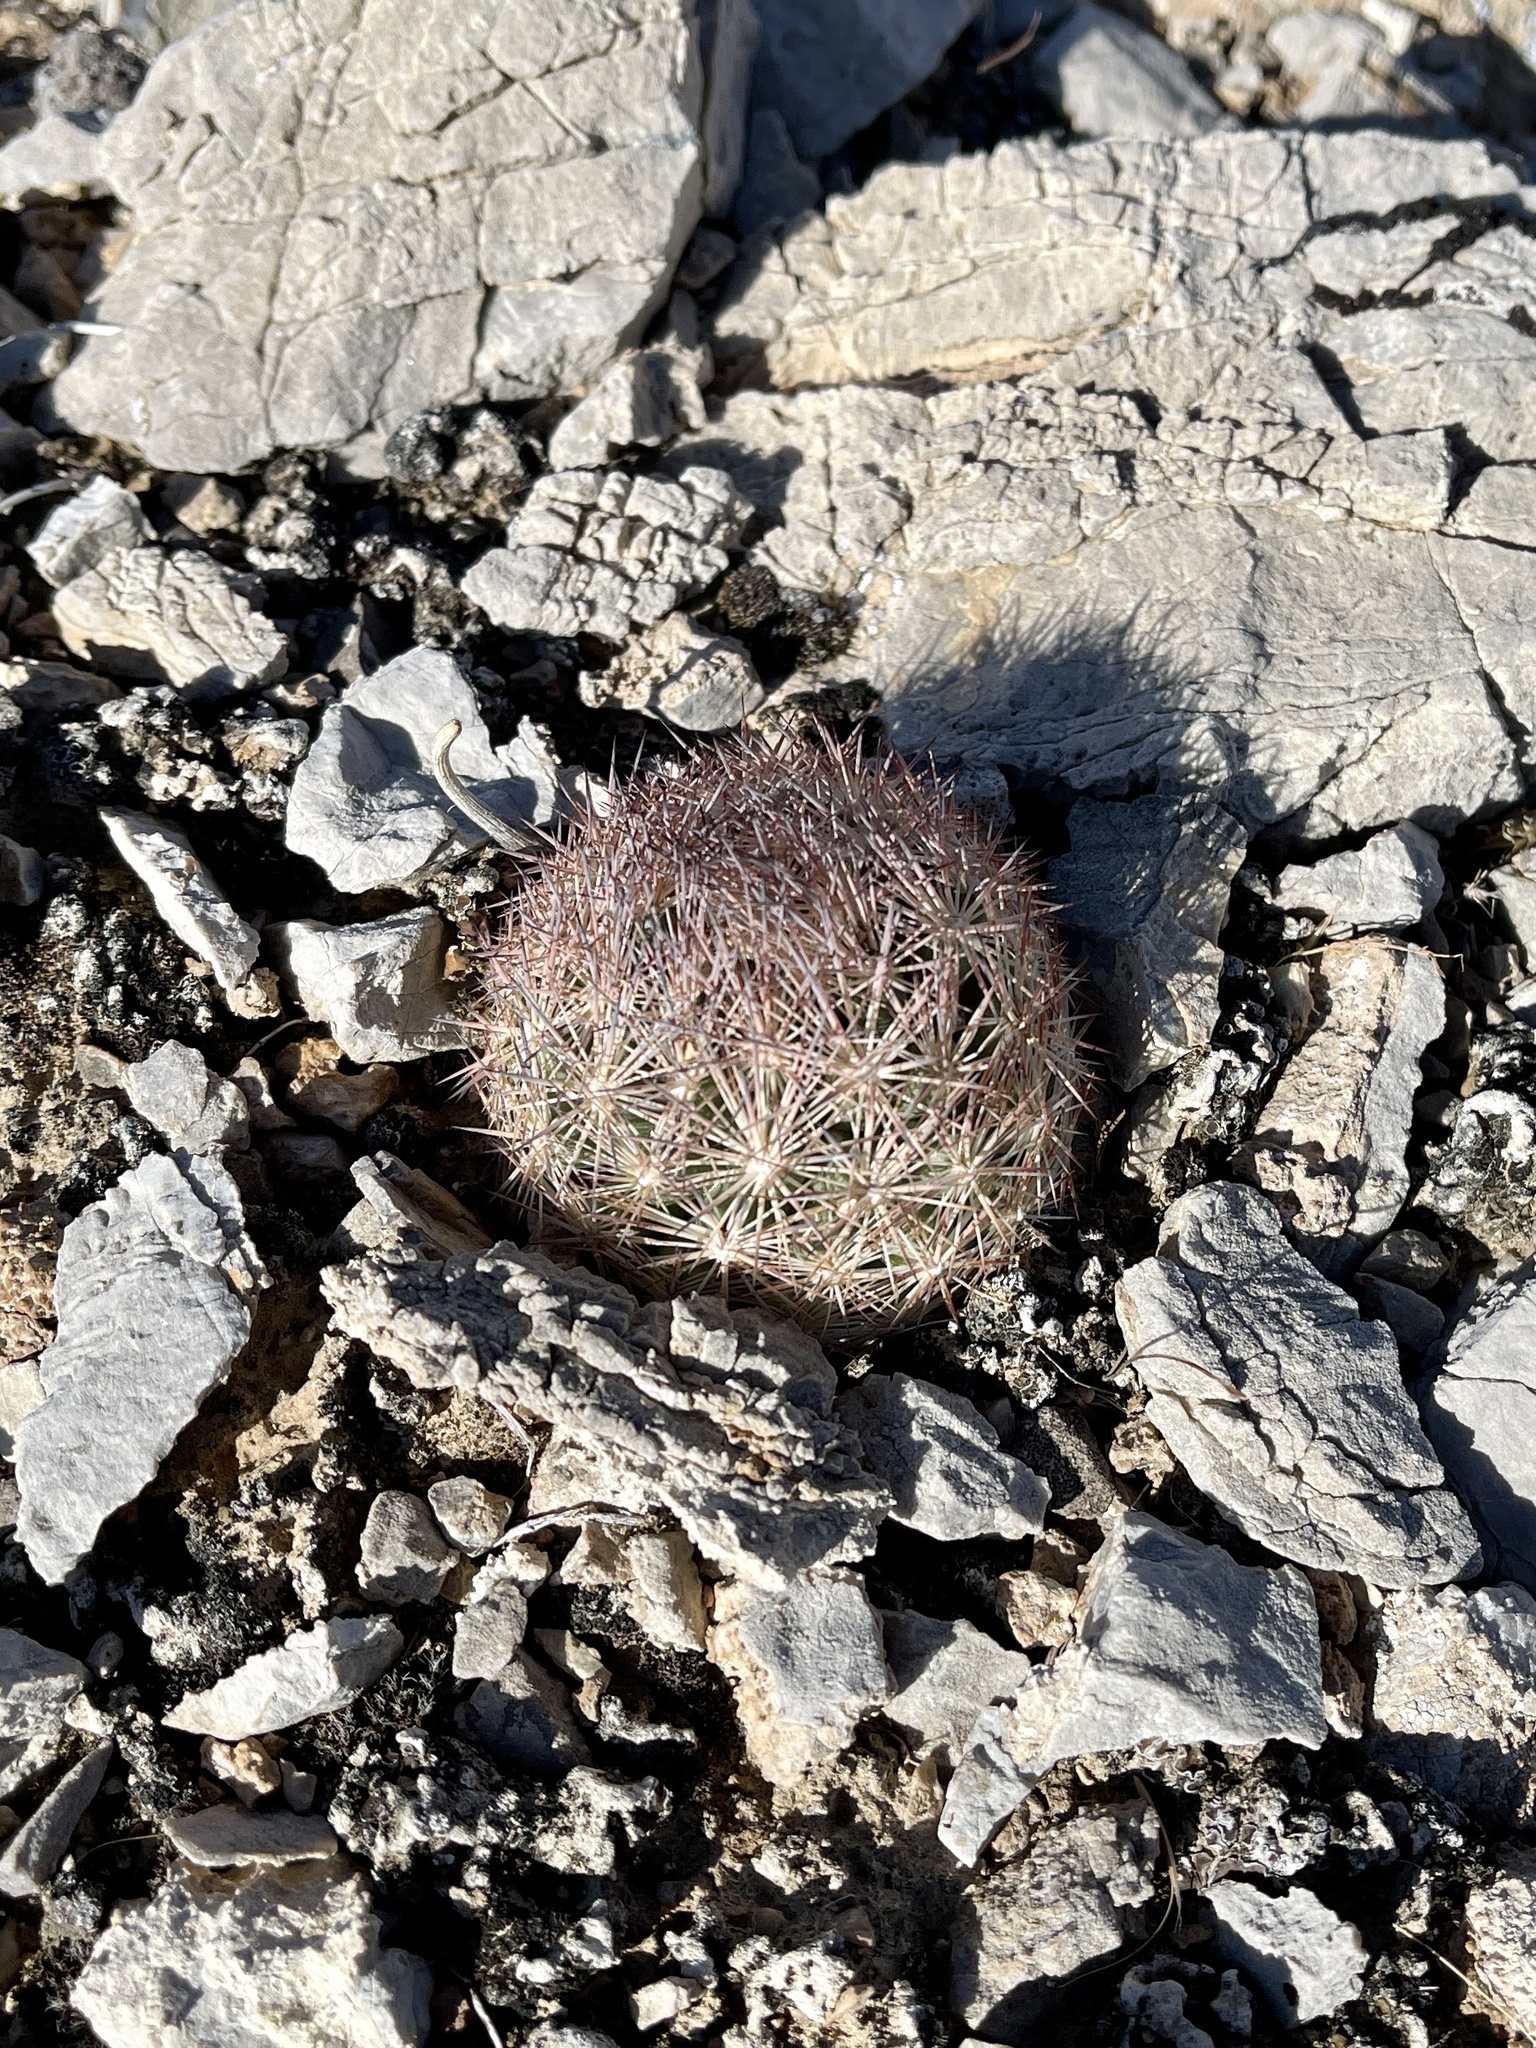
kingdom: Plantae
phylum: Tracheophyta
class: Magnoliopsida
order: Caryophyllales
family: Cactaceae
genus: Pelecyphora
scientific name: Pelecyphora dasyacantha
